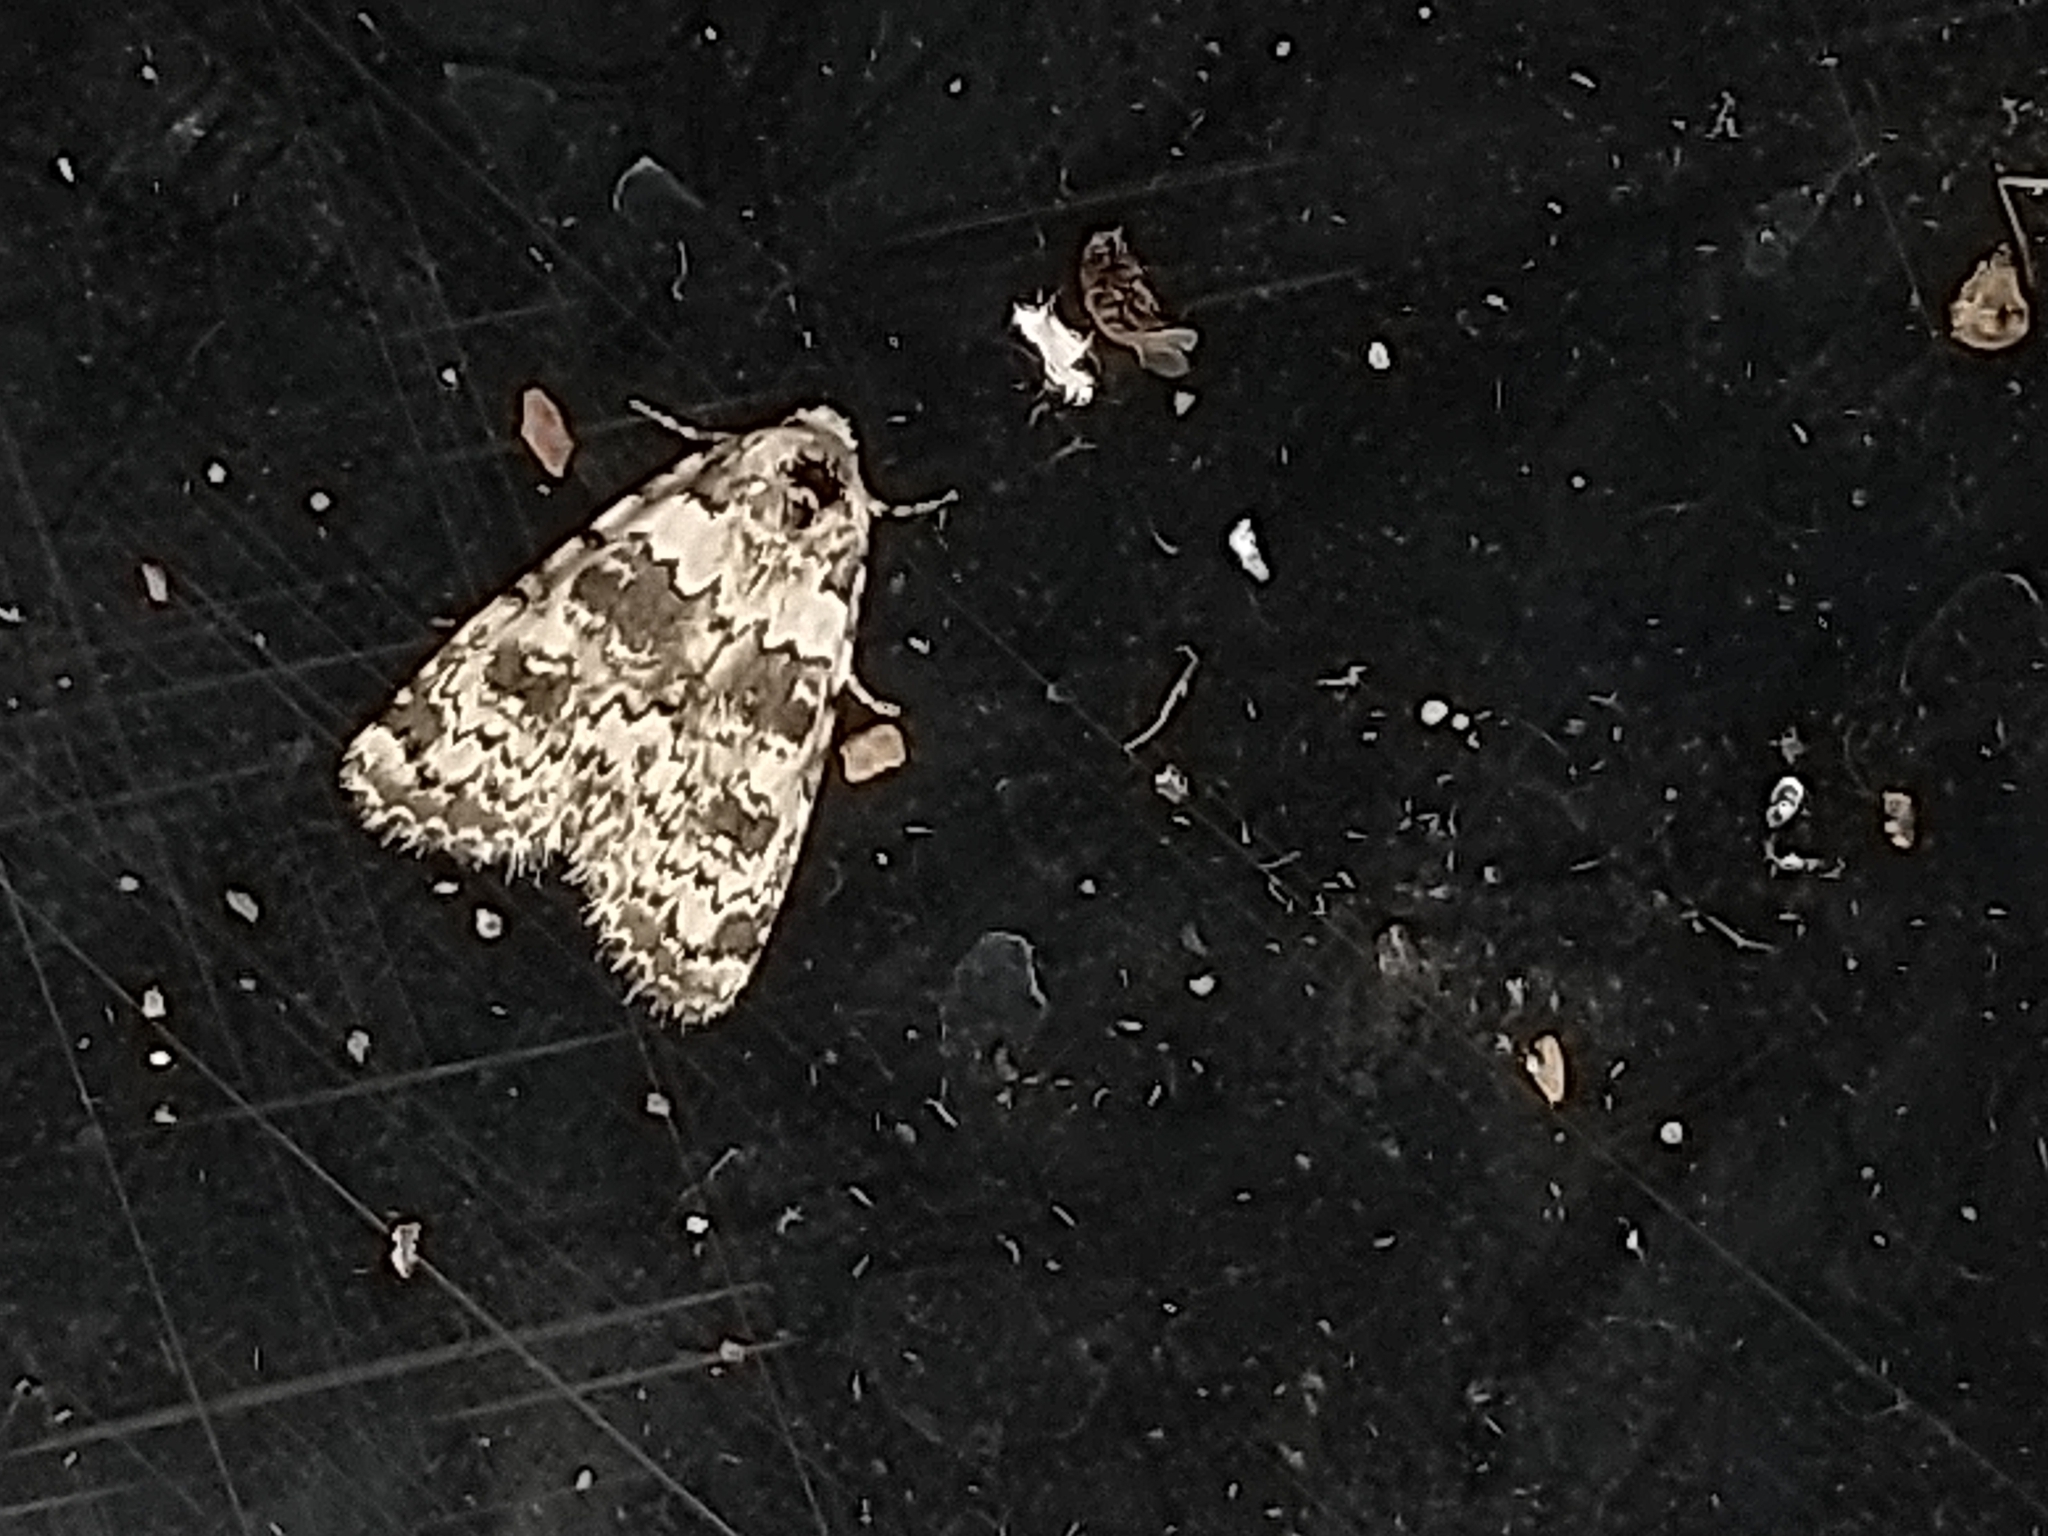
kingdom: Animalia
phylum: Arthropoda
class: Insecta
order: Lepidoptera
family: Noctuidae
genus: Bryophila
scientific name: Bryophila domestica
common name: Marbled beauty
